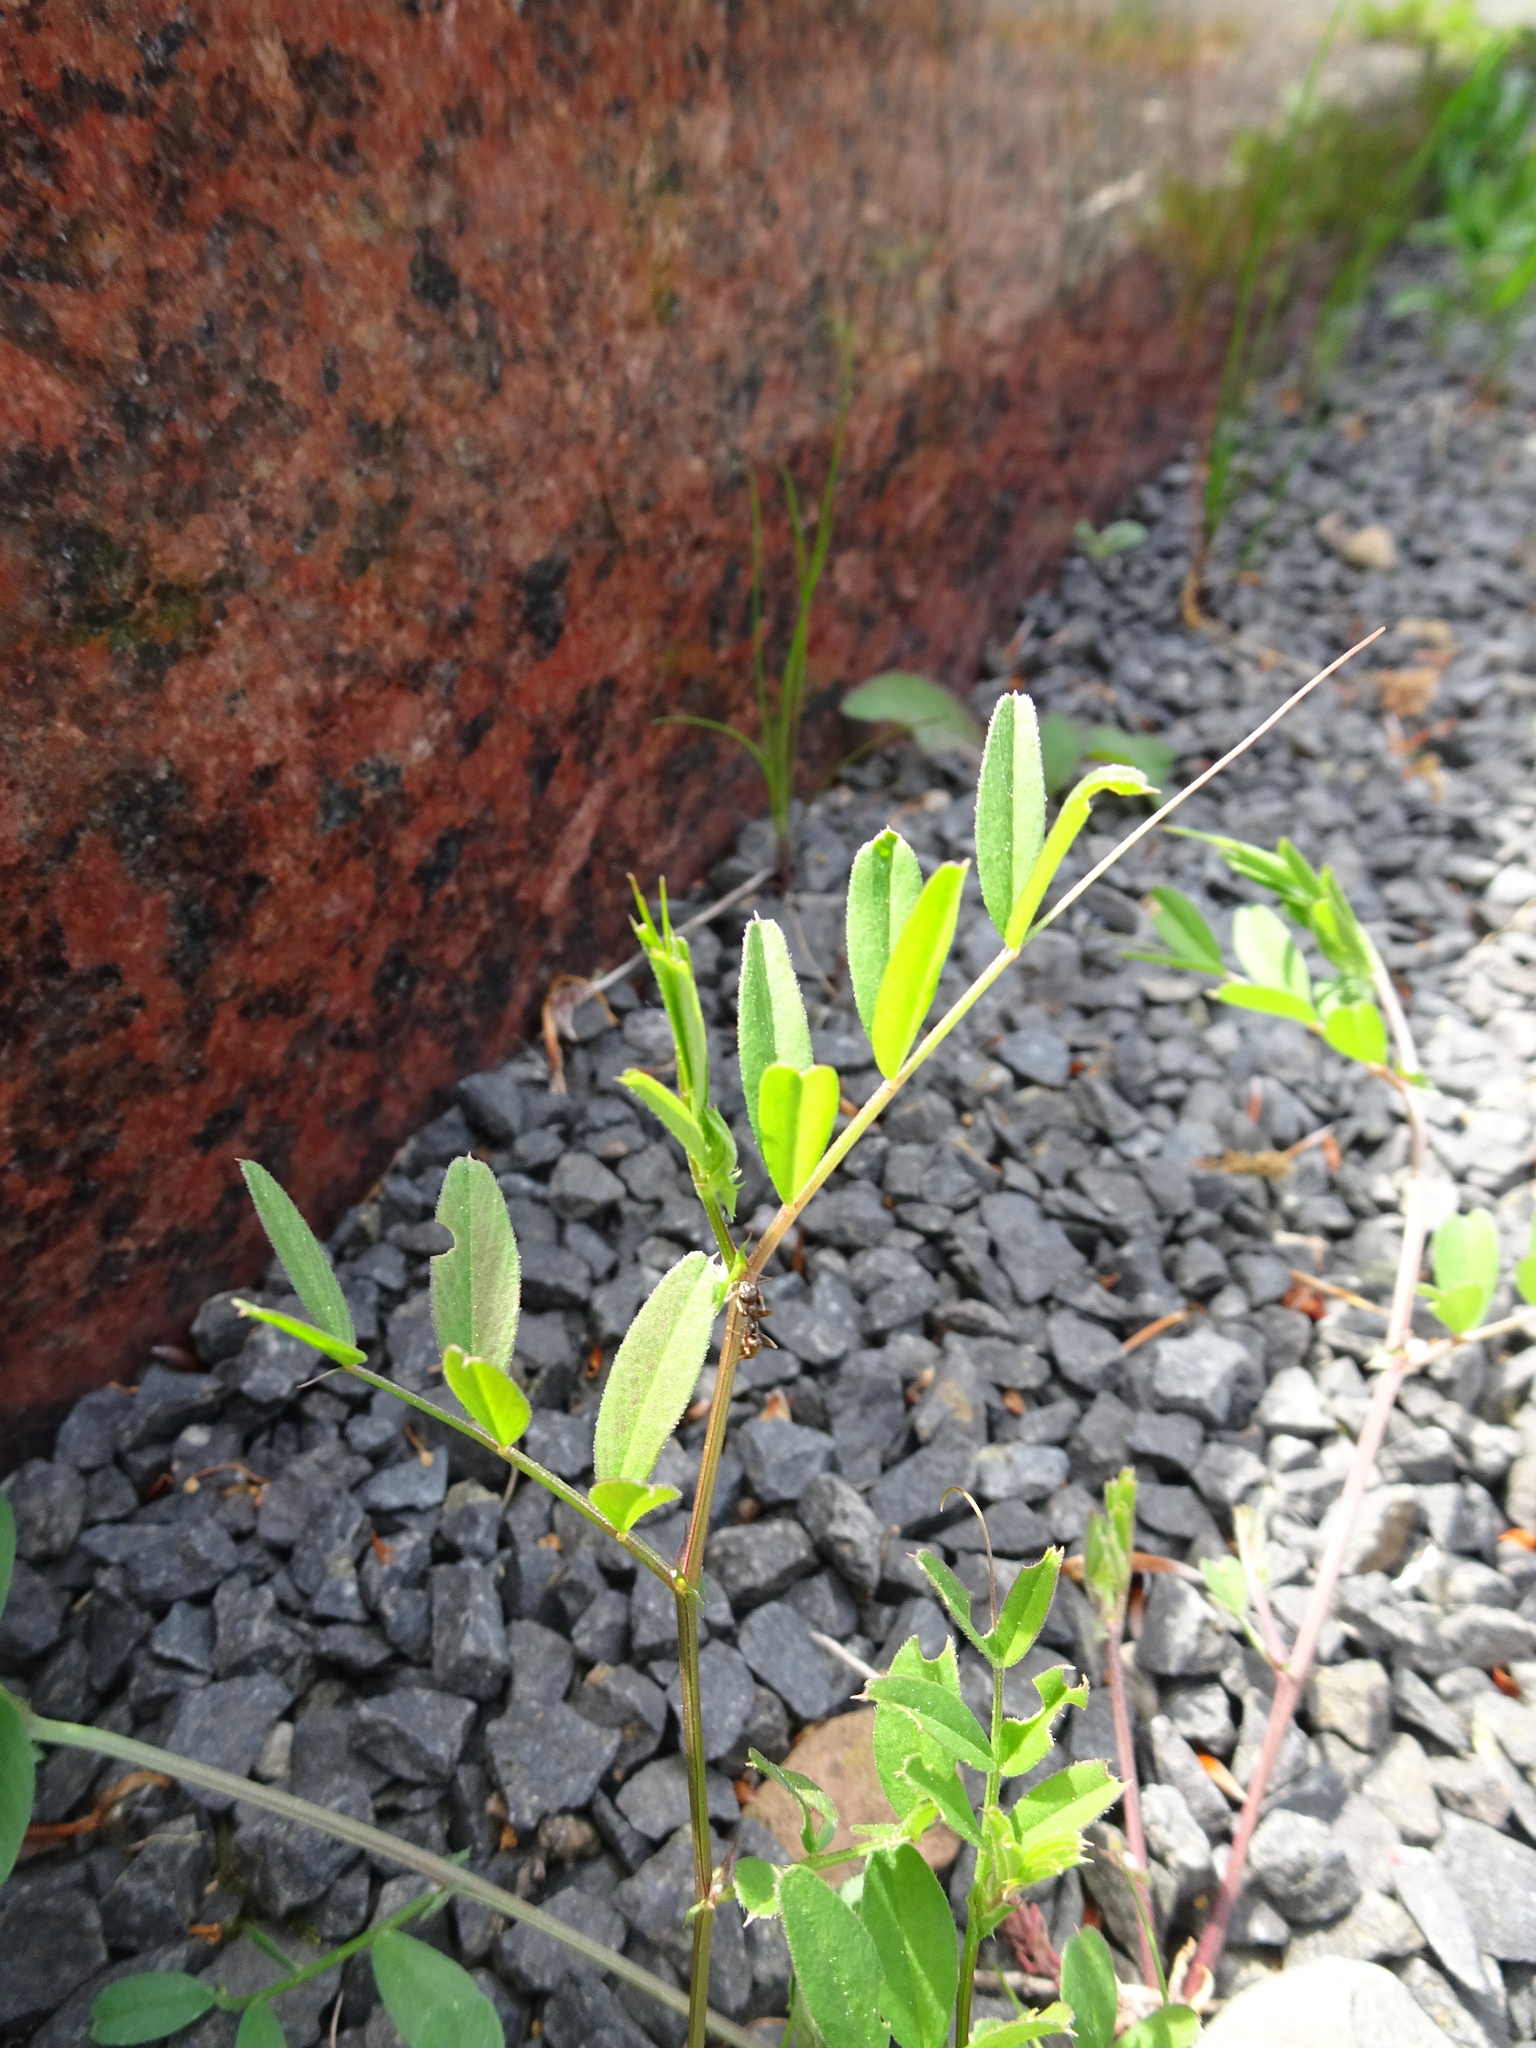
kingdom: Plantae
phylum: Tracheophyta
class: Magnoliopsida
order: Fabales
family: Fabaceae
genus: Vicia
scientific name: Vicia sativa
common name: Garden vetch
